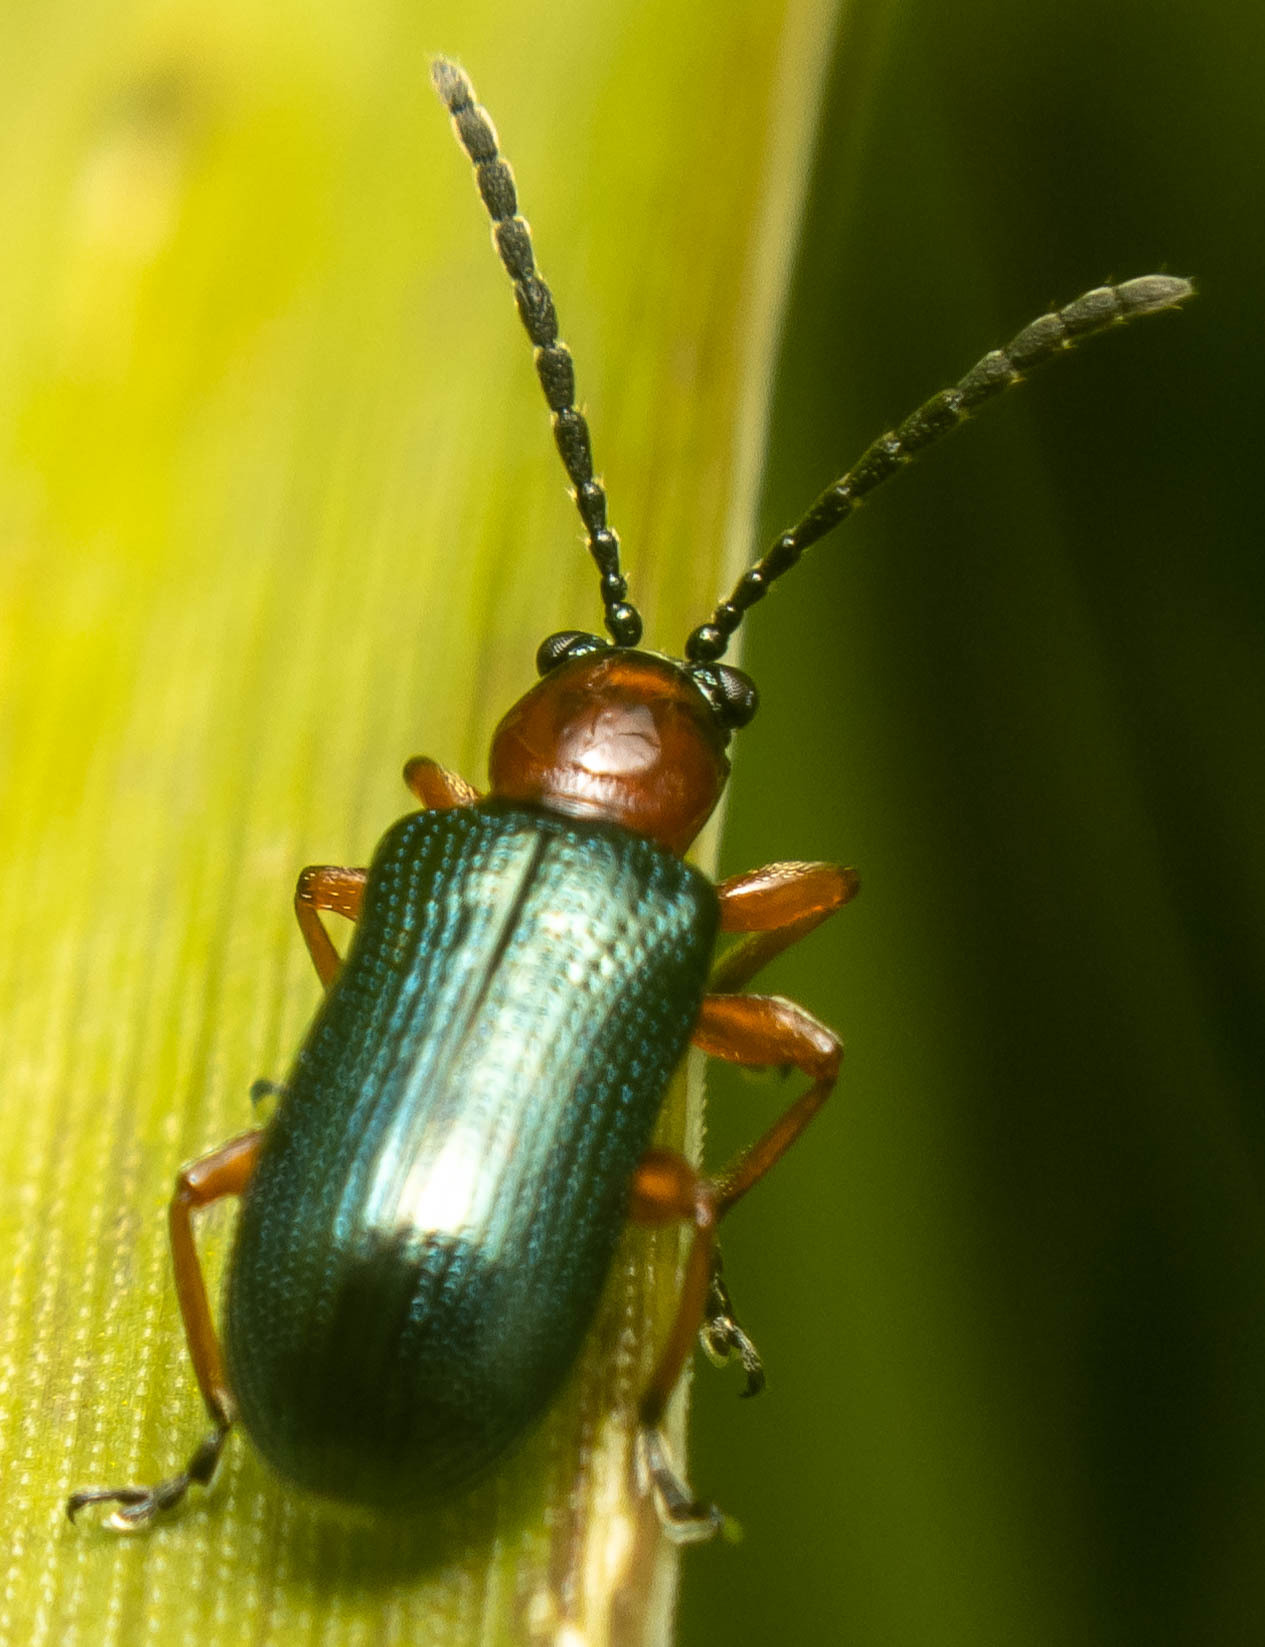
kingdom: Animalia
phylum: Arthropoda
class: Insecta
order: Coleoptera
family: Chrysomelidae
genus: Oulema
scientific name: Oulema
